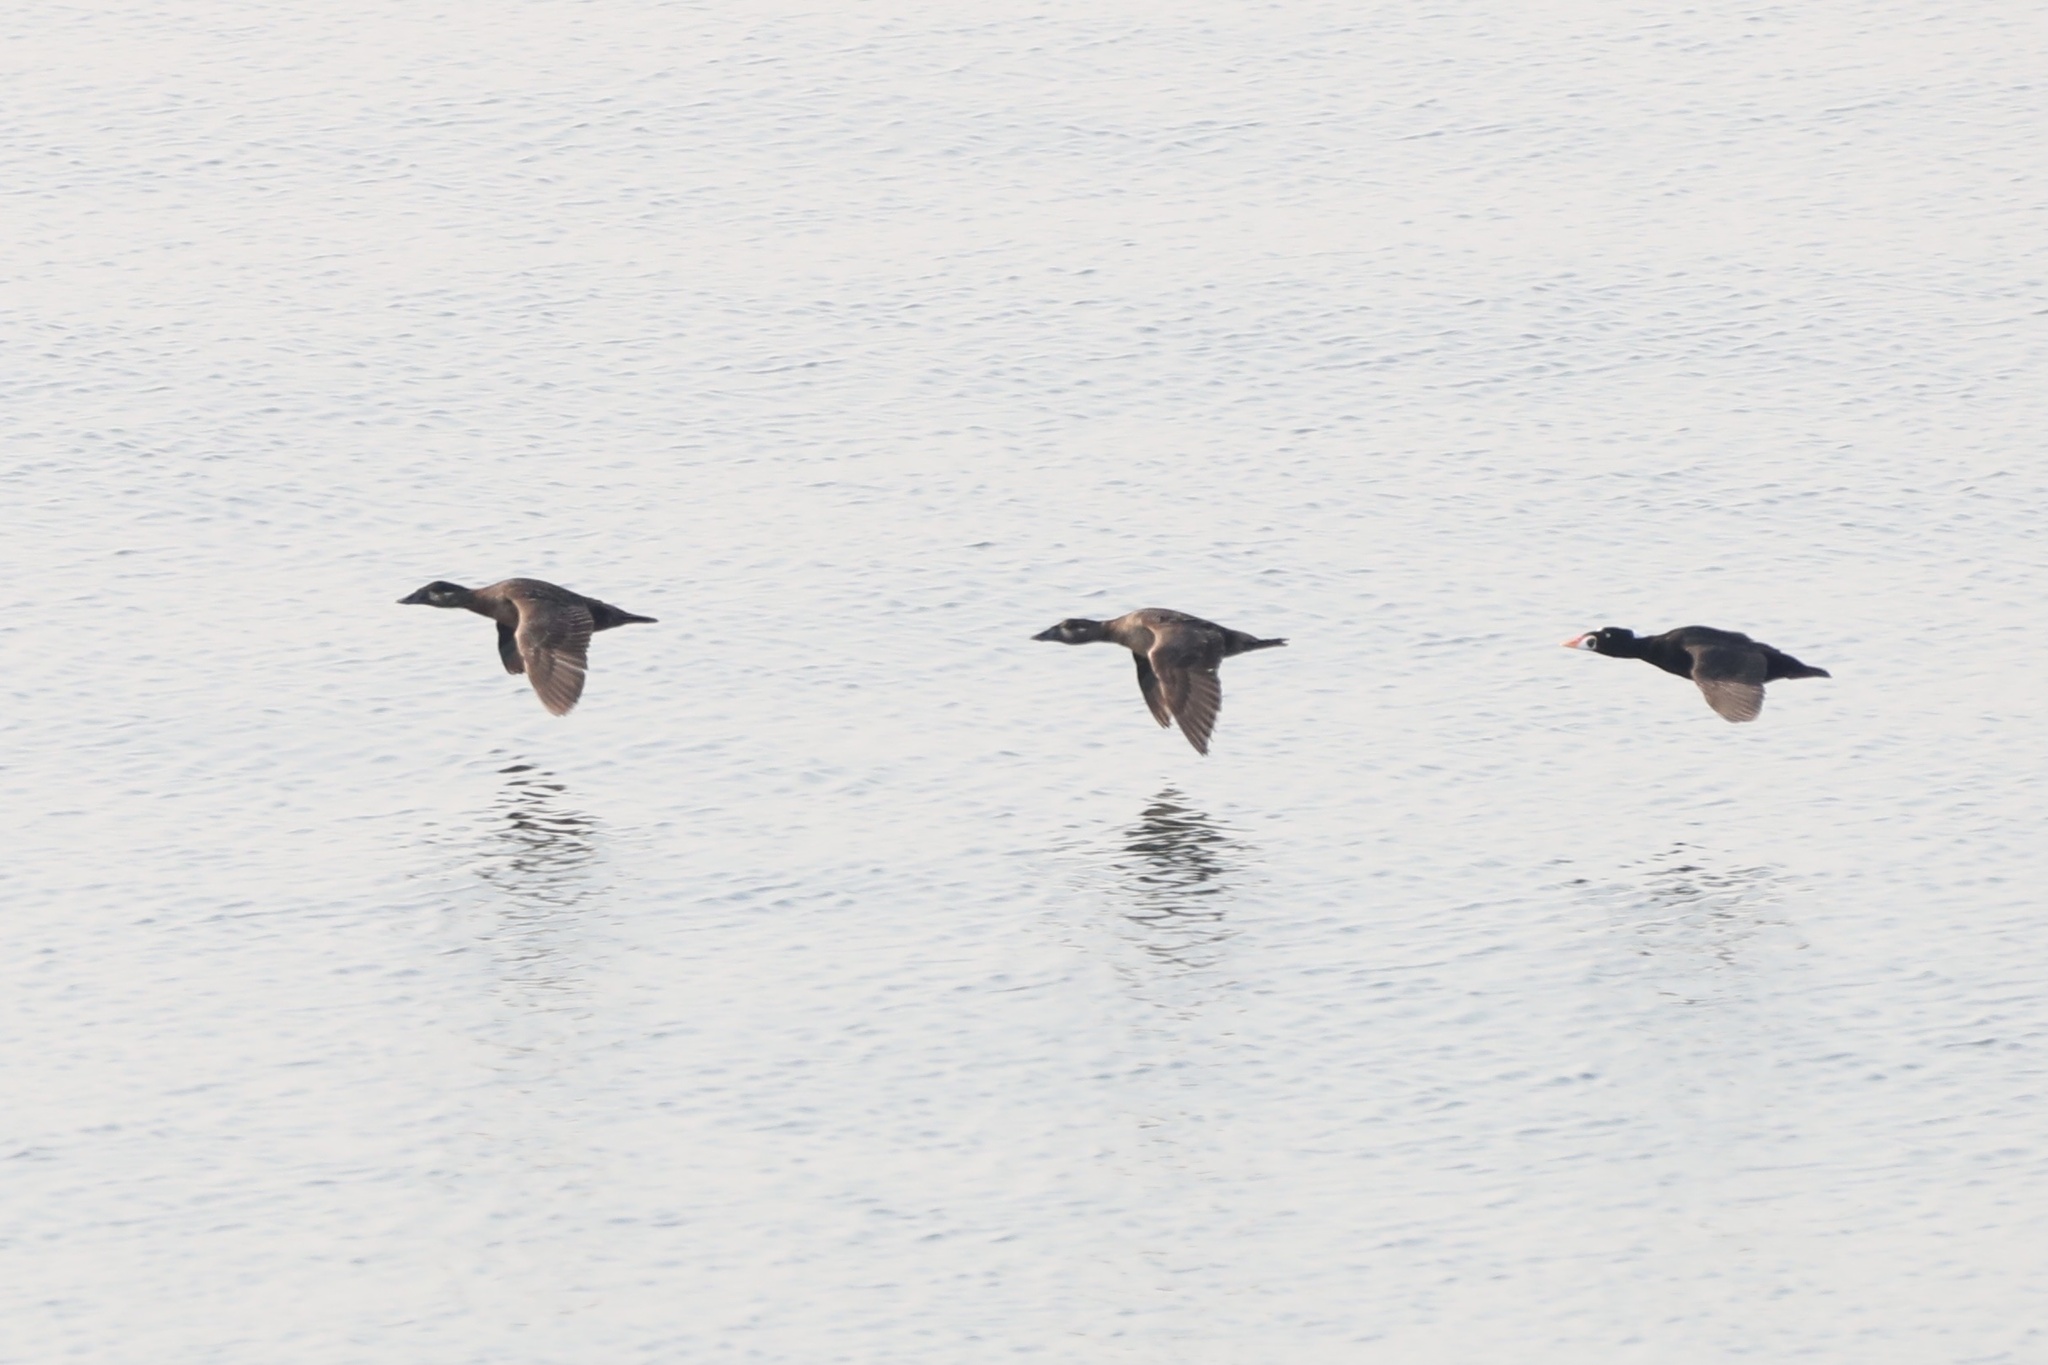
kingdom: Animalia
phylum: Chordata
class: Aves
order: Anseriformes
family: Anatidae
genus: Melanitta
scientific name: Melanitta perspicillata
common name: Surf scoter
